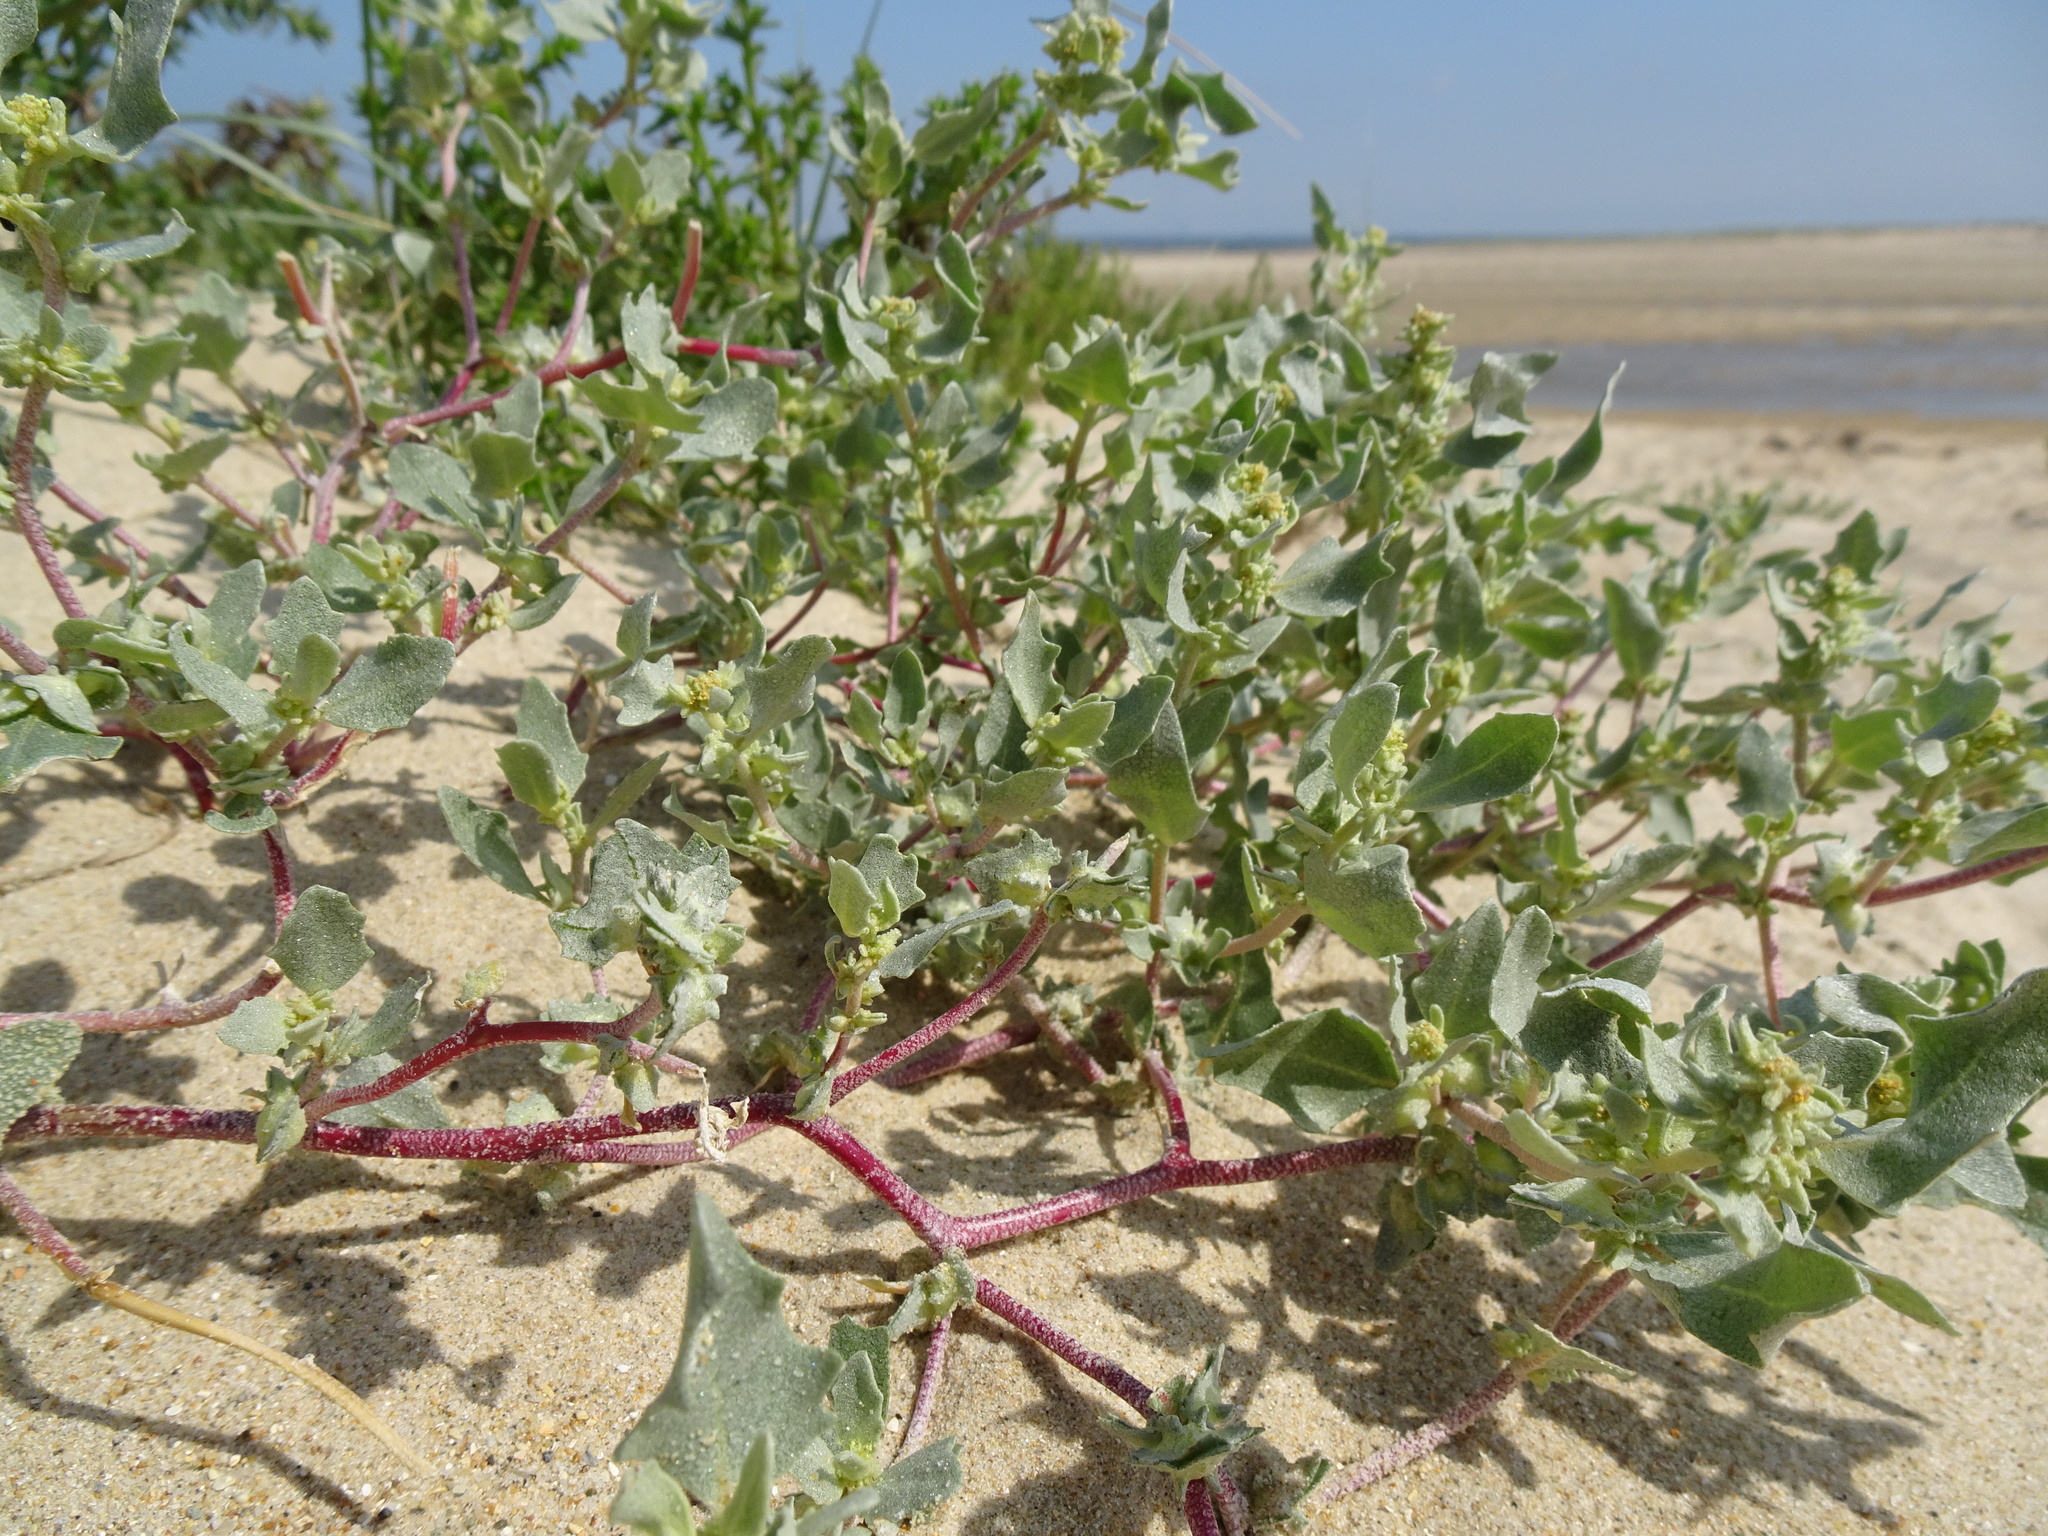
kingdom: Plantae
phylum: Tracheophyta
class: Magnoliopsida
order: Caryophyllales
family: Amaranthaceae
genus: Atriplex
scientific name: Atriplex laciniata
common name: Frosted orache
